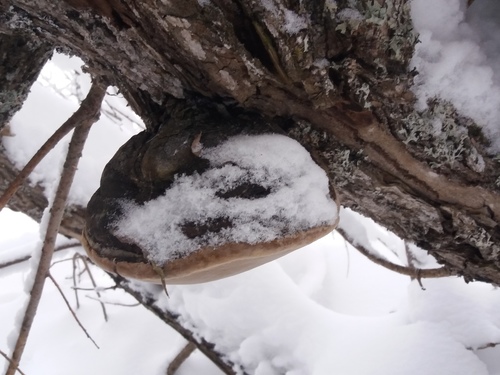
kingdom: Fungi
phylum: Basidiomycota
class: Agaricomycetes
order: Hymenochaetales
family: Hymenochaetaceae
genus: Phellinus
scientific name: Phellinus igniarius
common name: Willow bracket
